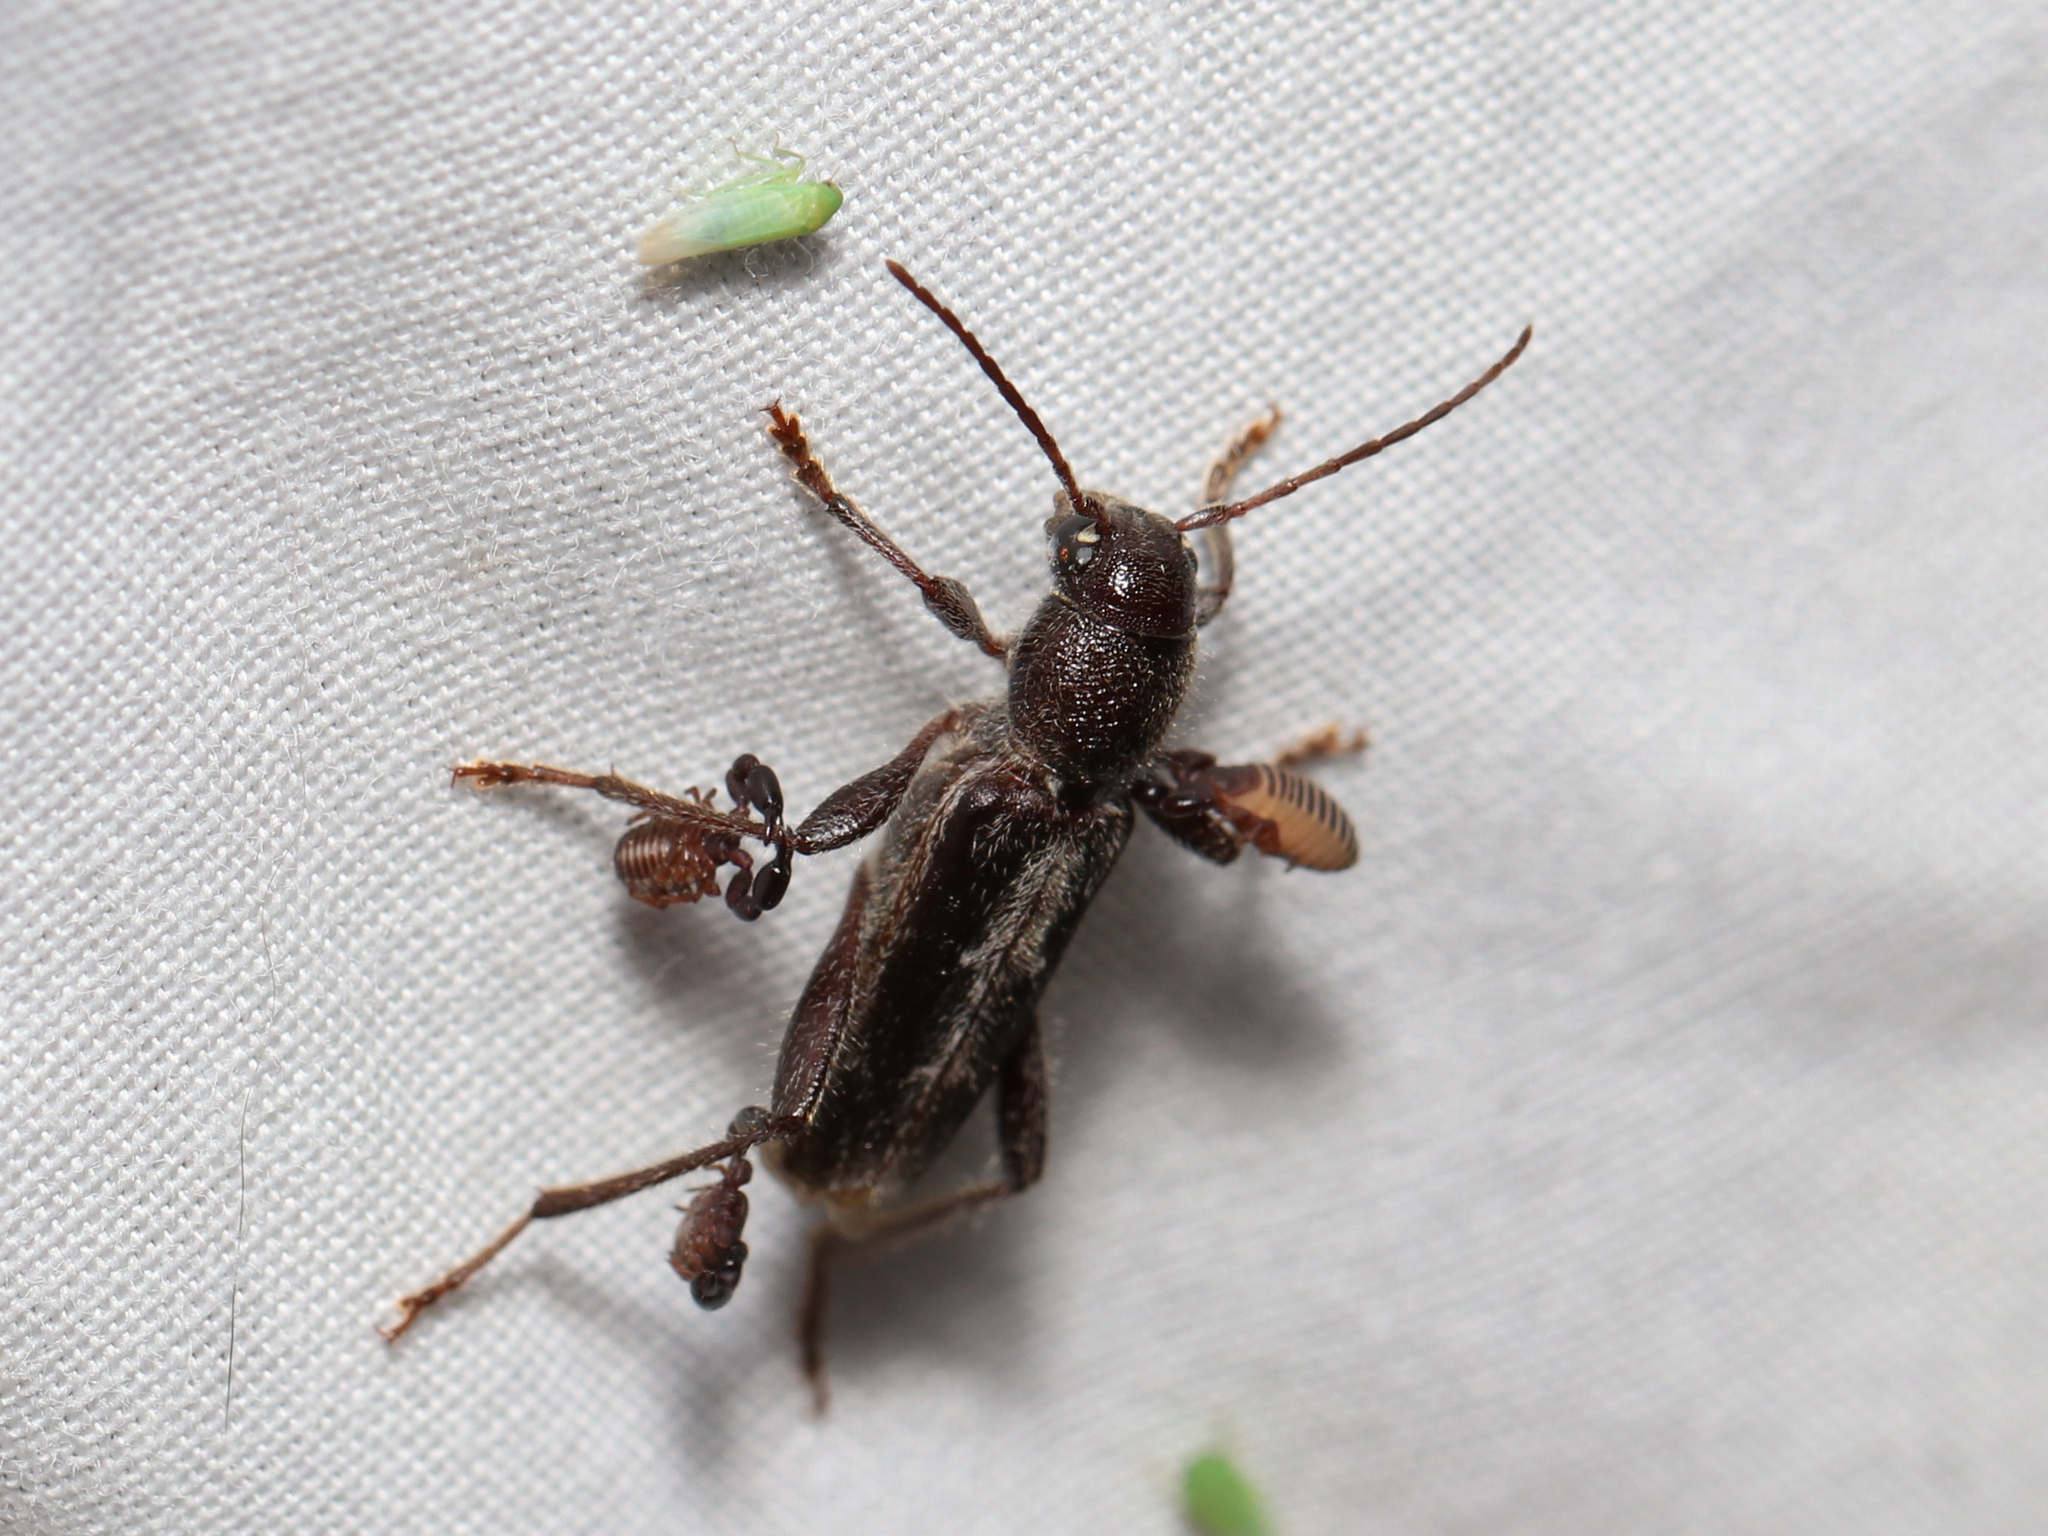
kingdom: Animalia
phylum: Arthropoda
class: Insecta
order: Coleoptera
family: Cerambycidae
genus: Xylotrechus
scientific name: Xylotrechus sagittatus
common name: Arrowhead borer
